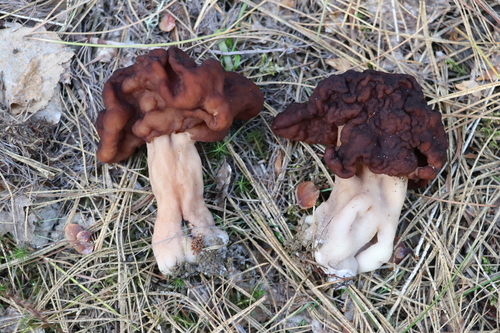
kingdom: Fungi
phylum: Ascomycota
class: Pezizomycetes
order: Pezizales
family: Discinaceae
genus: Gyromitra
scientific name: Gyromitra esculenta
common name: False morel
